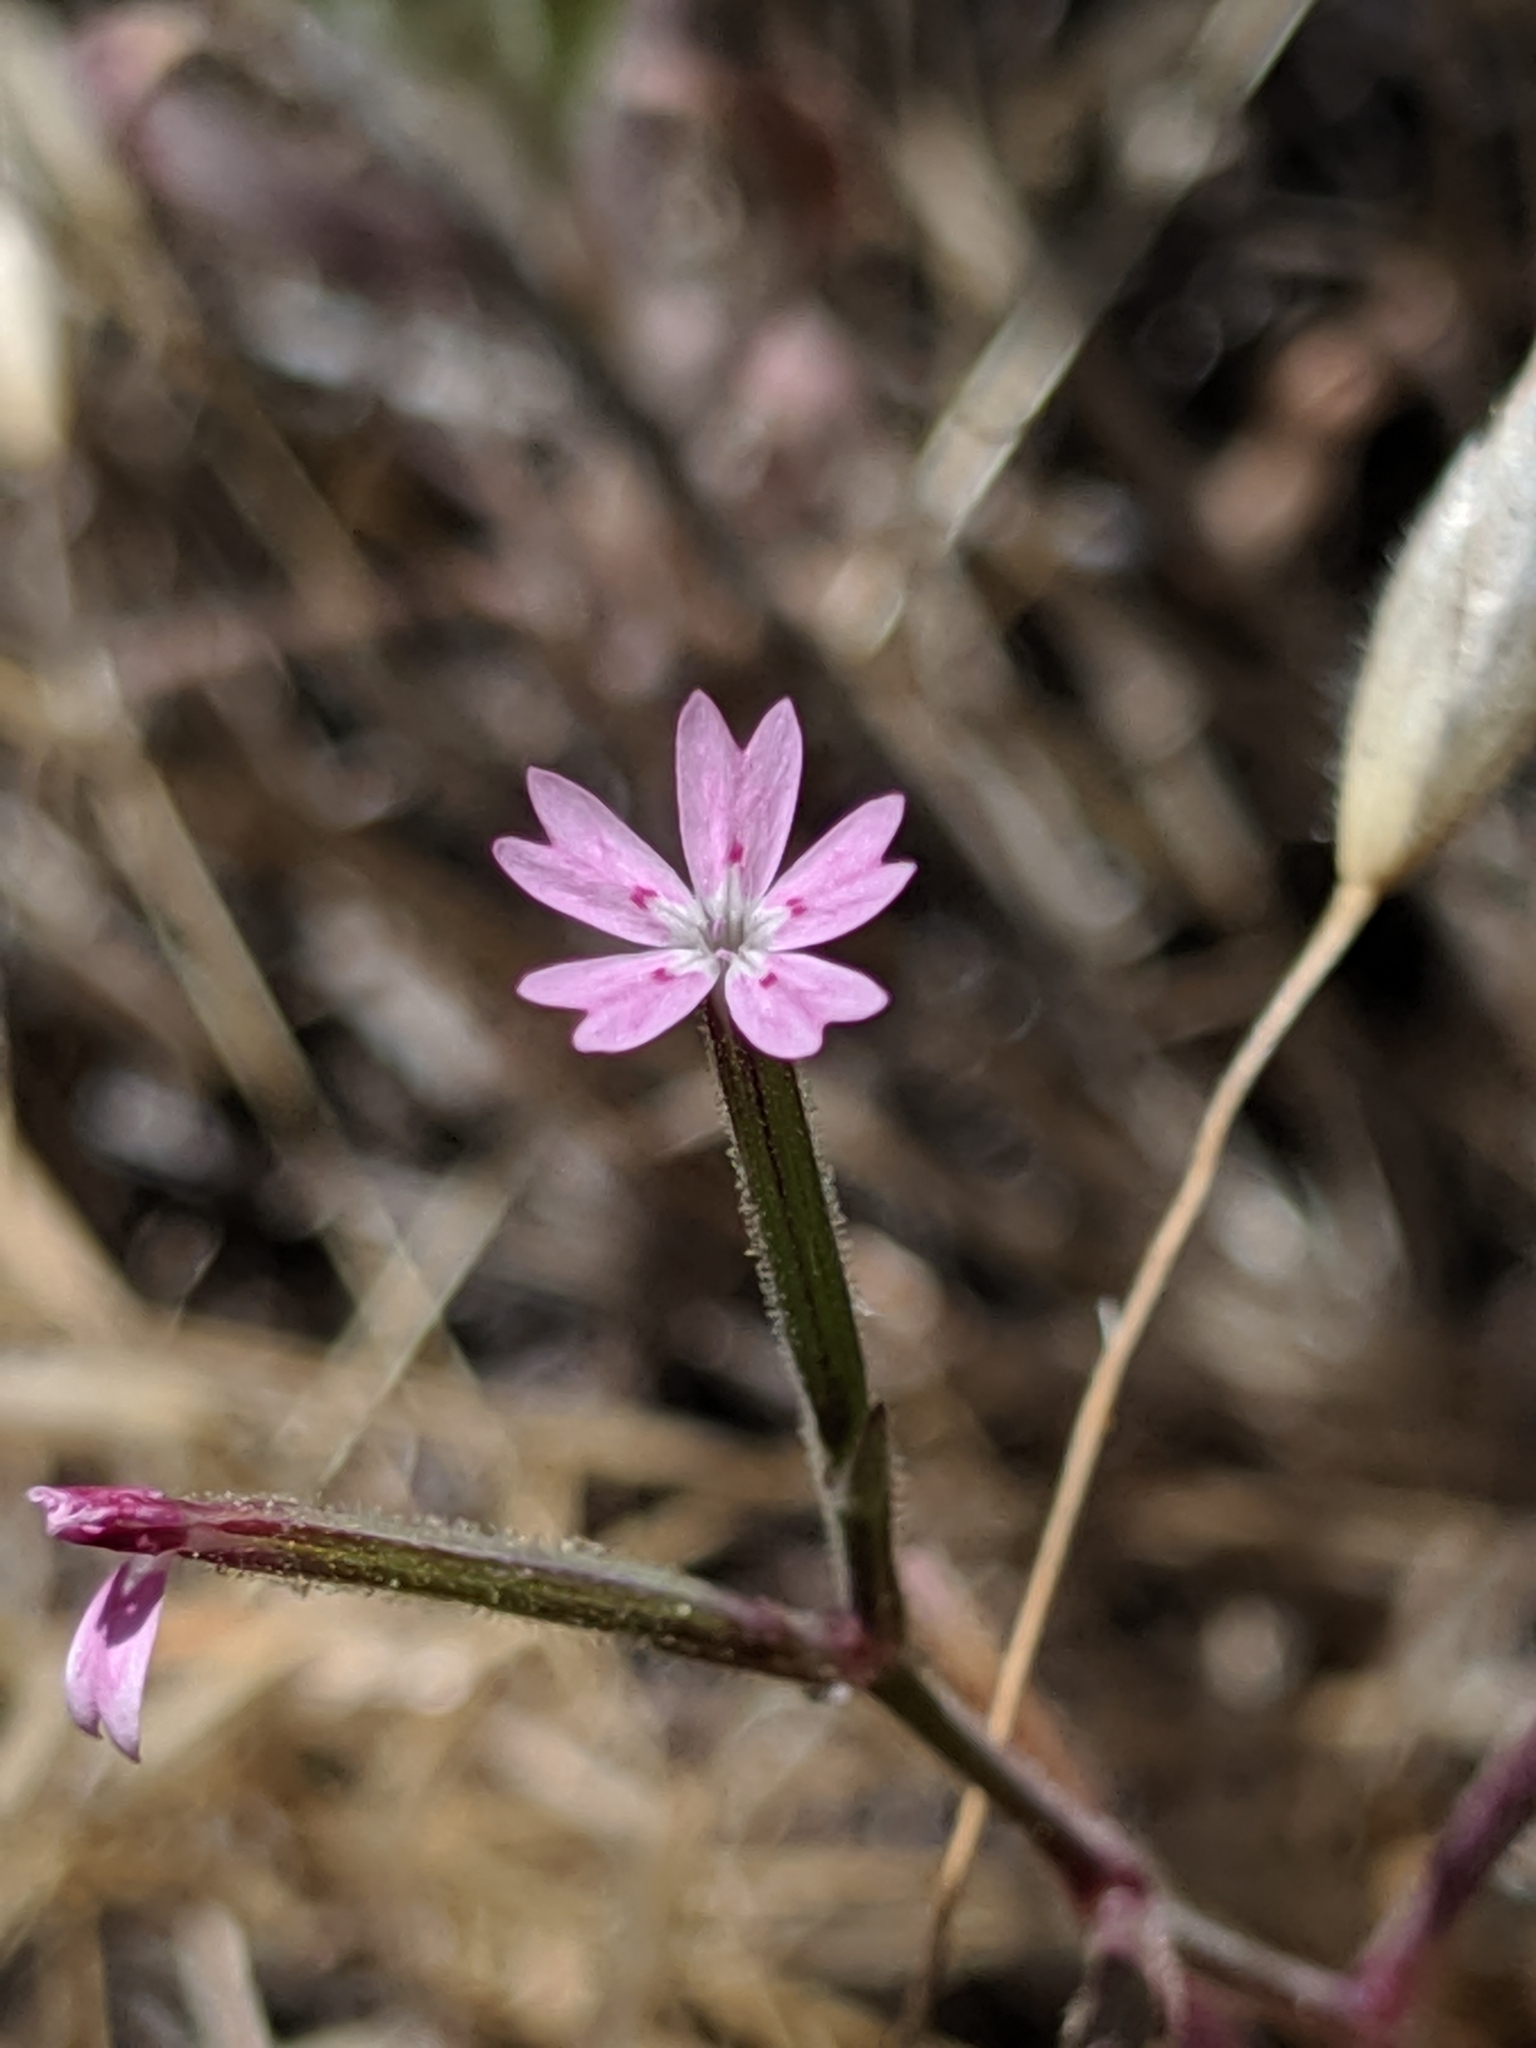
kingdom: Plantae
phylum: Tracheophyta
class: Magnoliopsida
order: Caryophyllales
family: Caryophyllaceae
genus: Dianthus
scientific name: Dianthus nudiflorus
